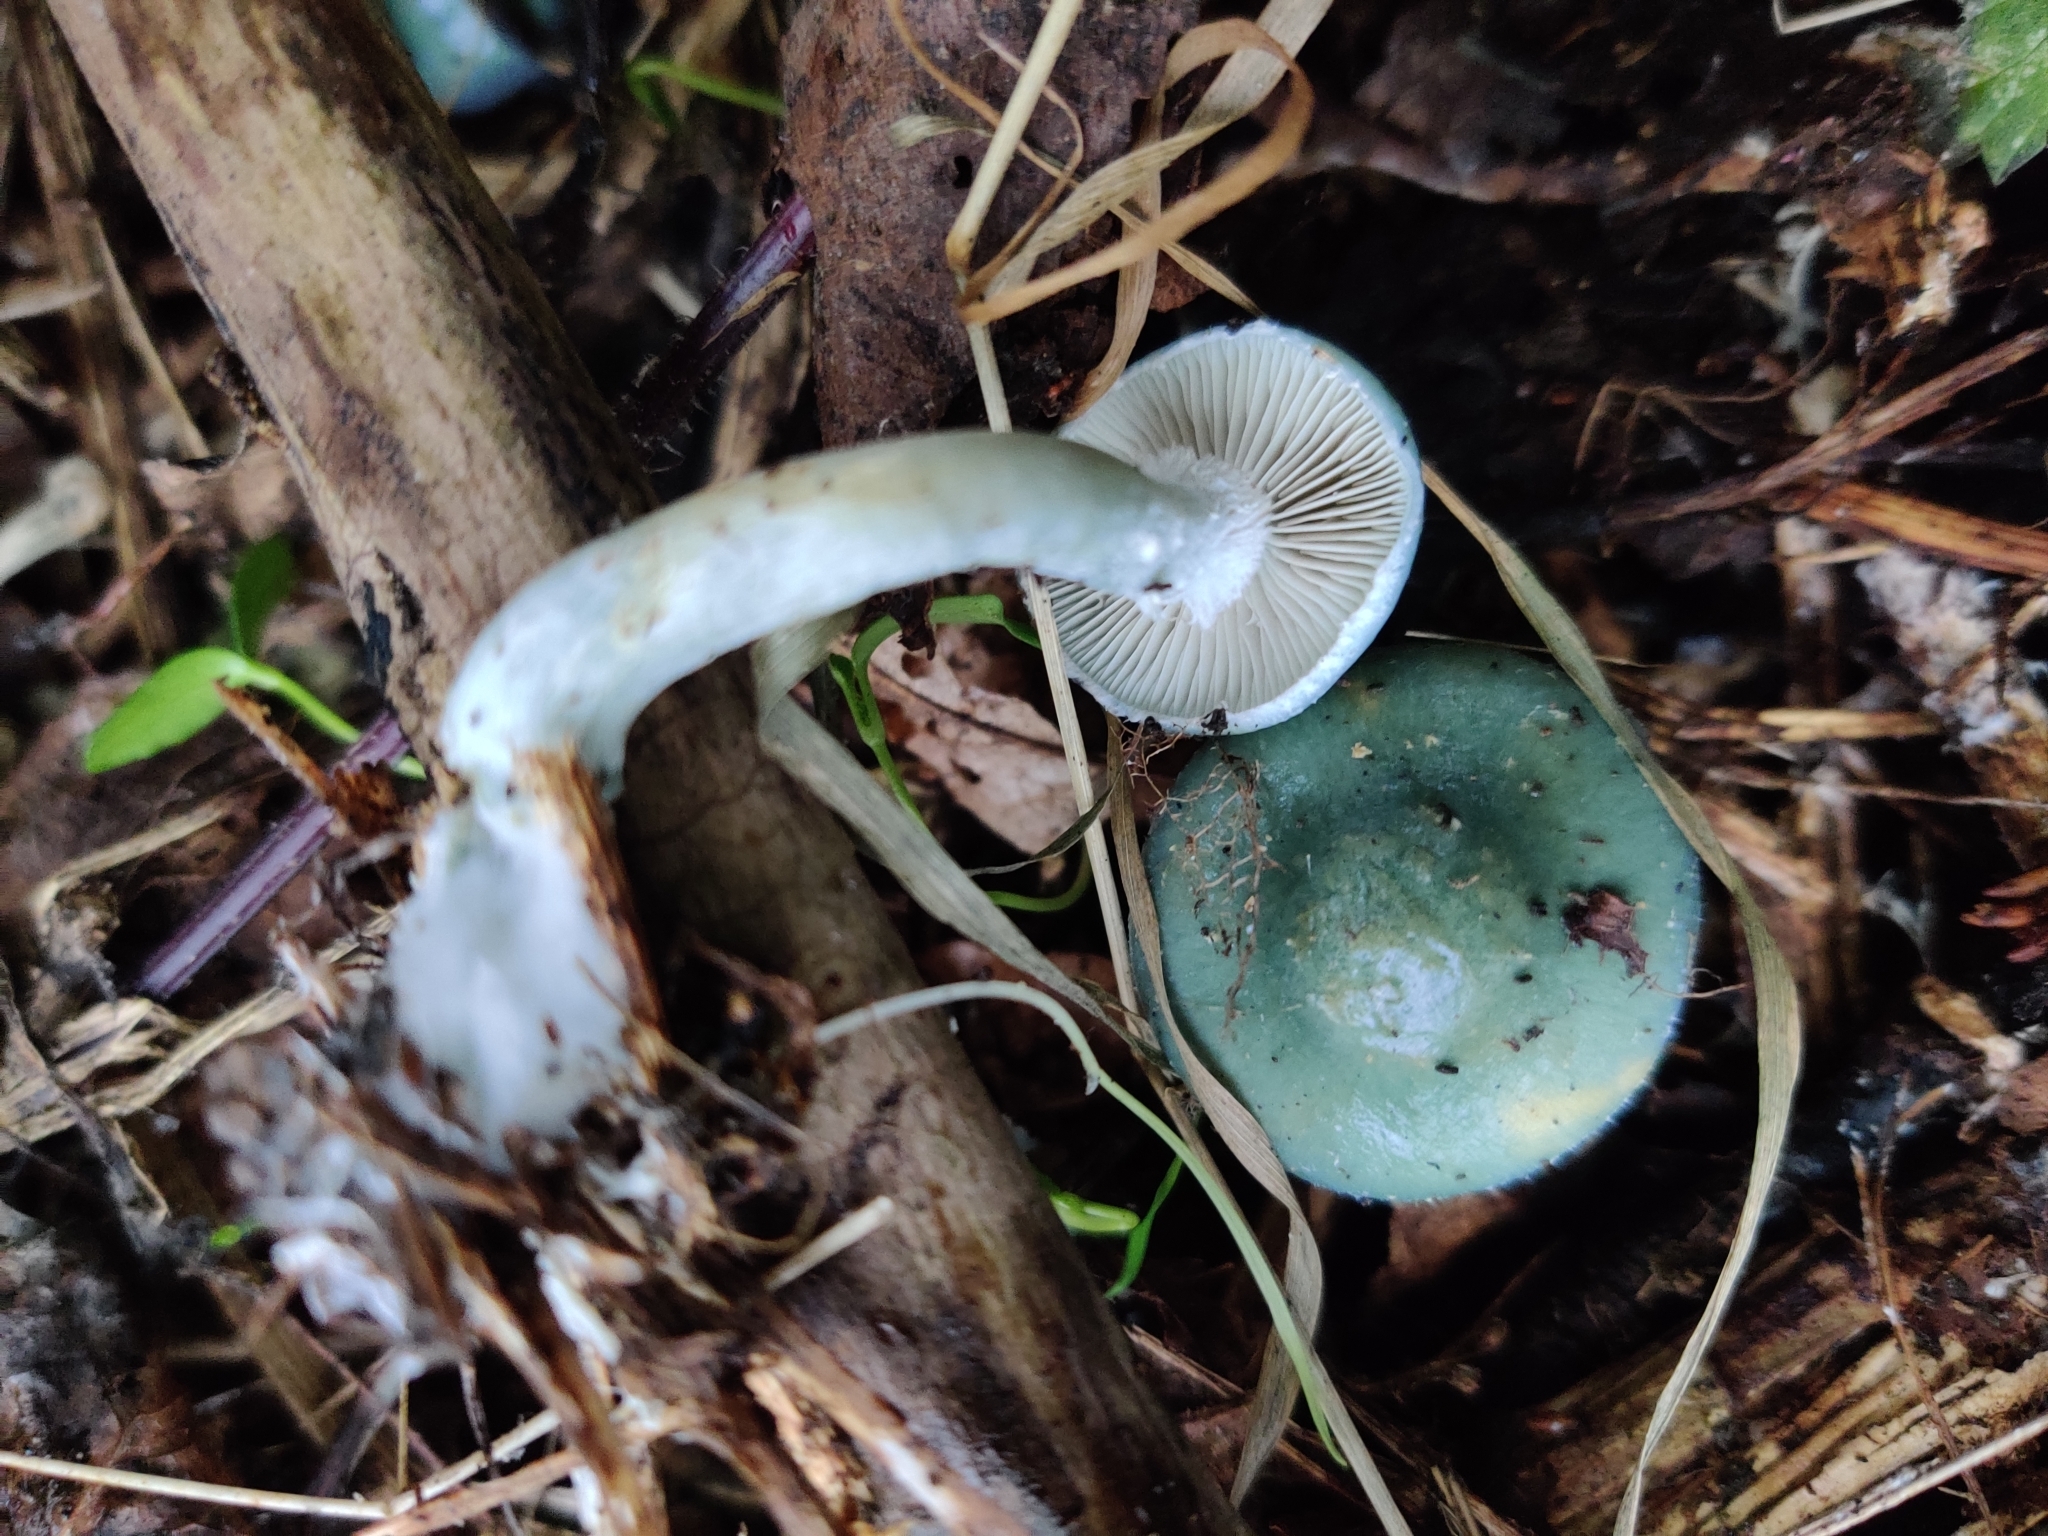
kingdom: Fungi
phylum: Basidiomycota
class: Agaricomycetes
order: Agaricales
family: Strophariaceae
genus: Stropharia
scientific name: Stropharia aeruginosa
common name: Verdigris roundhead
